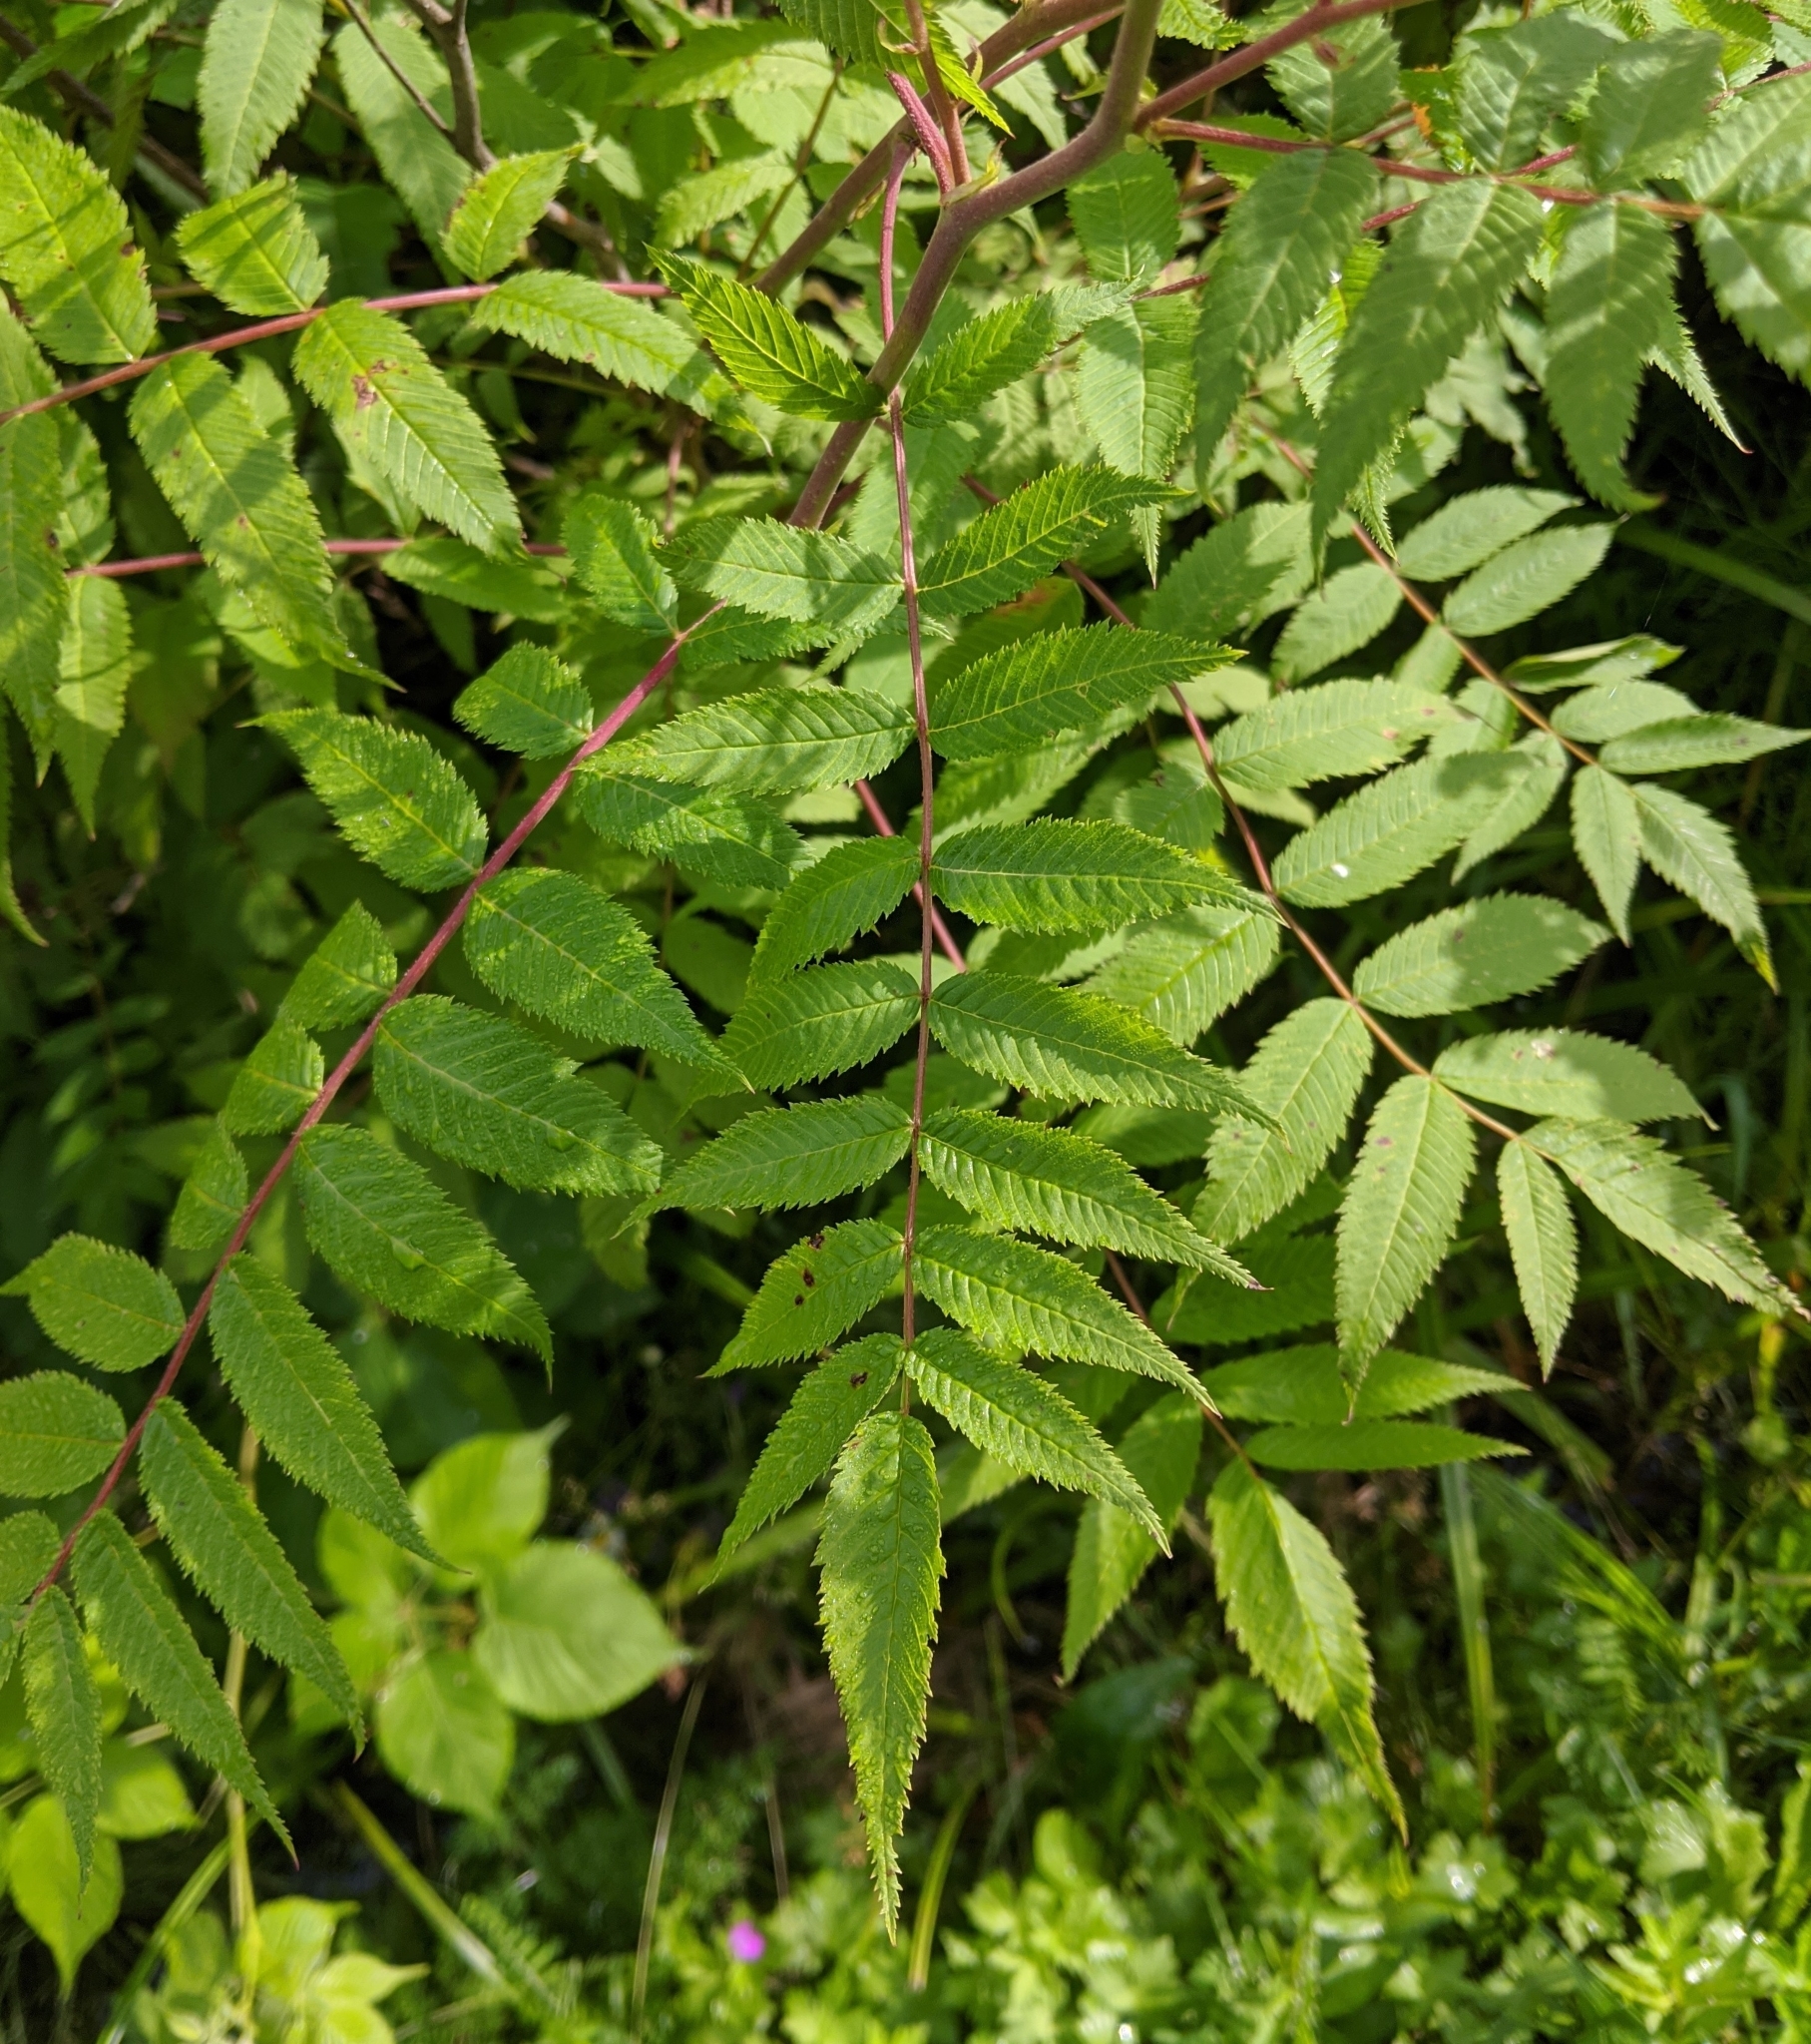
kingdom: Plantae
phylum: Tracheophyta
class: Magnoliopsida
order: Rosales
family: Rosaceae
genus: Sorbaria
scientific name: Sorbaria sorbifolia
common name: False spiraea
